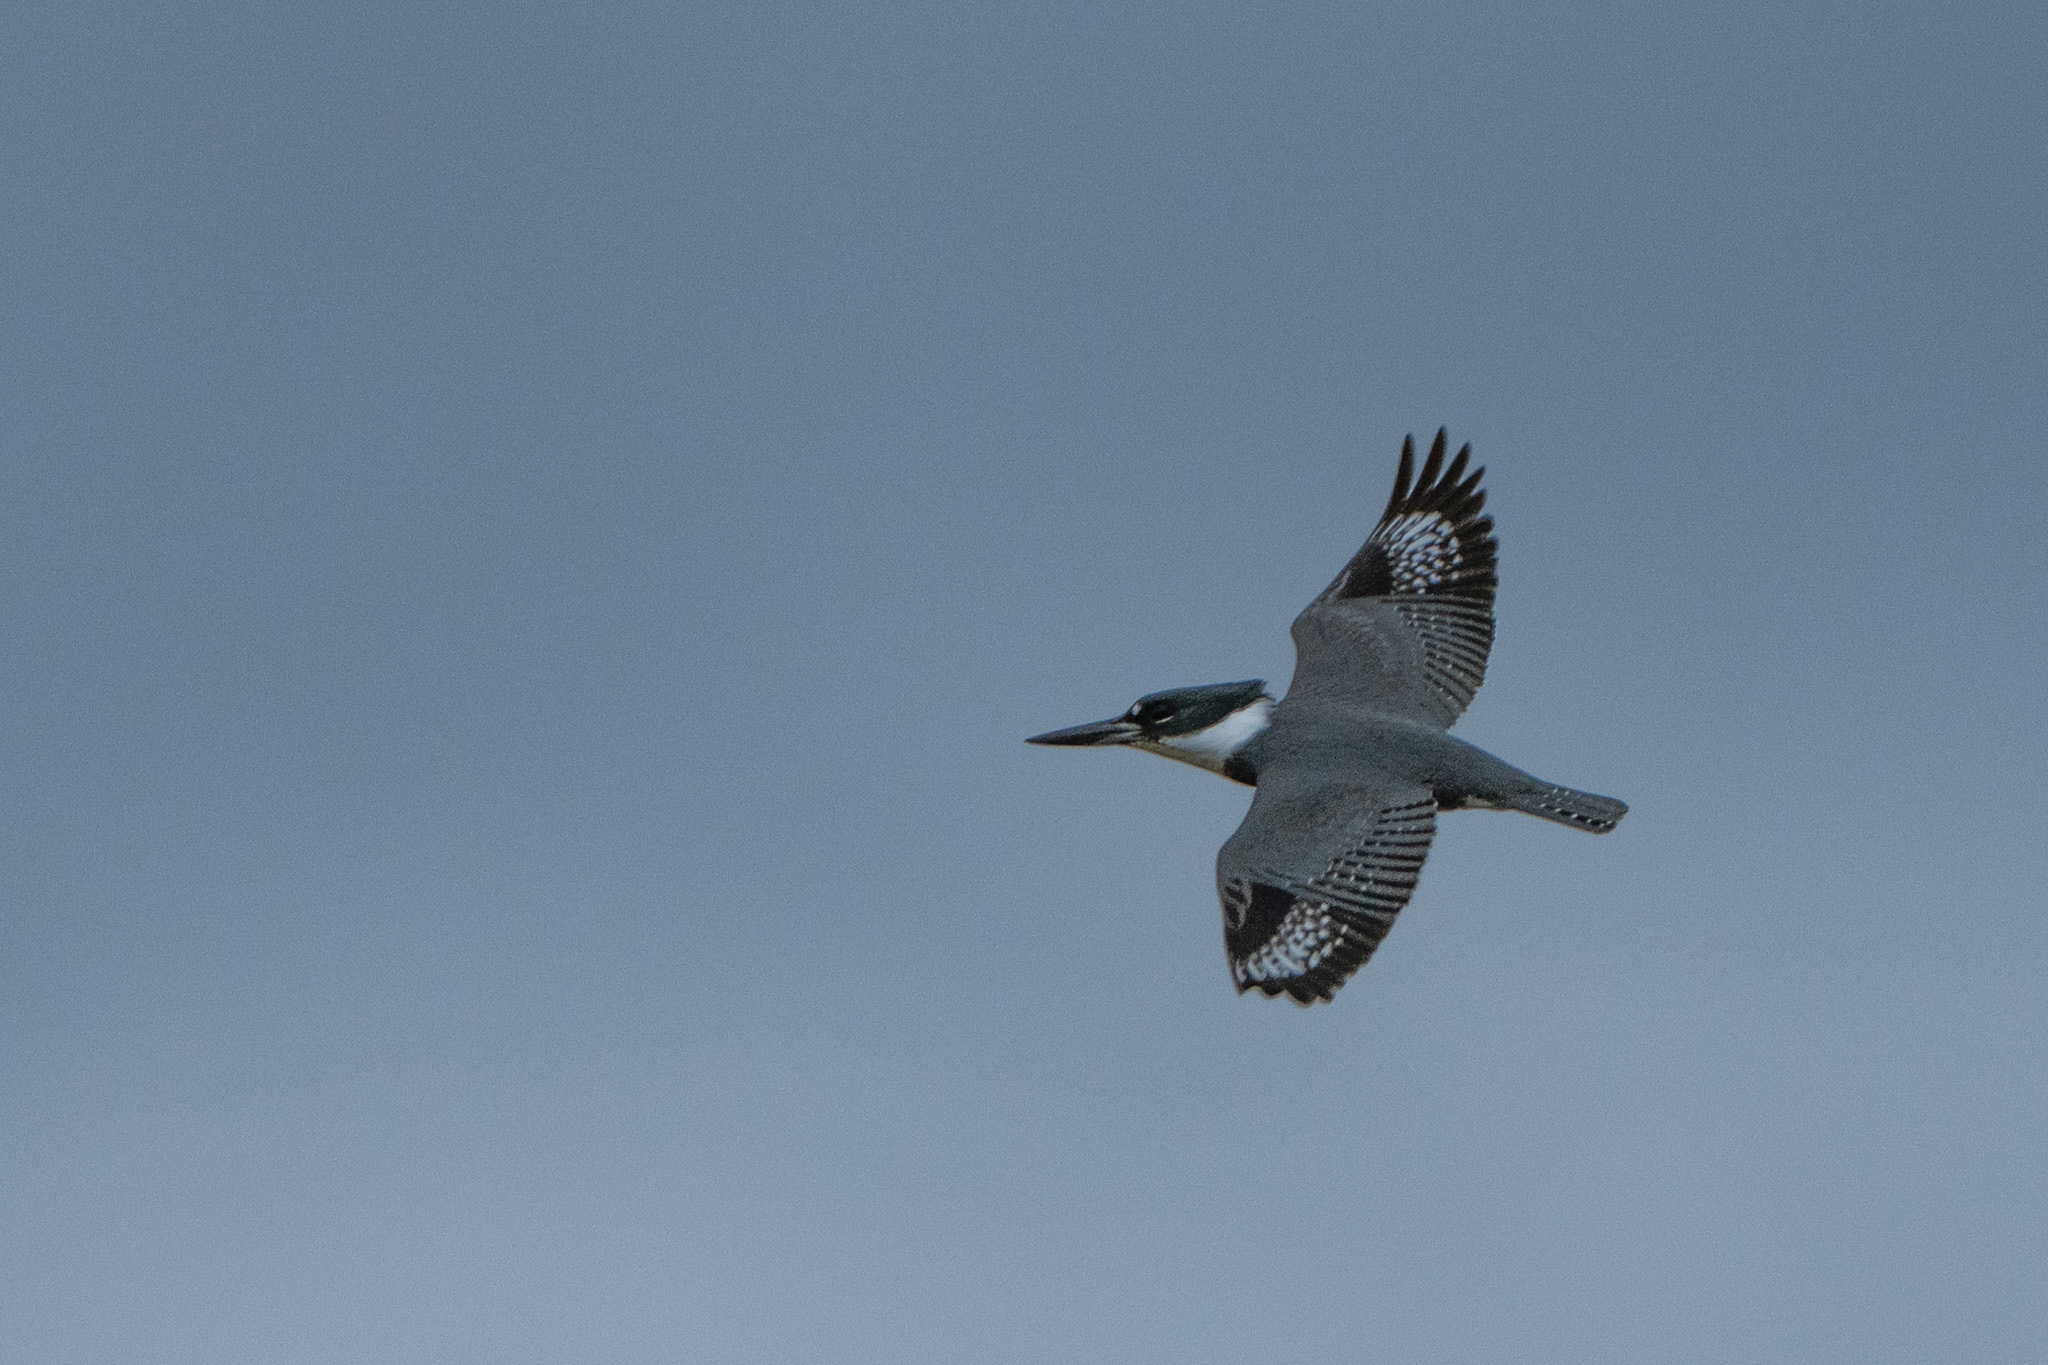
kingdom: Animalia
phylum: Chordata
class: Aves
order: Coraciiformes
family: Alcedinidae
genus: Megaceryle
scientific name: Megaceryle alcyon
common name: Belted kingfisher
